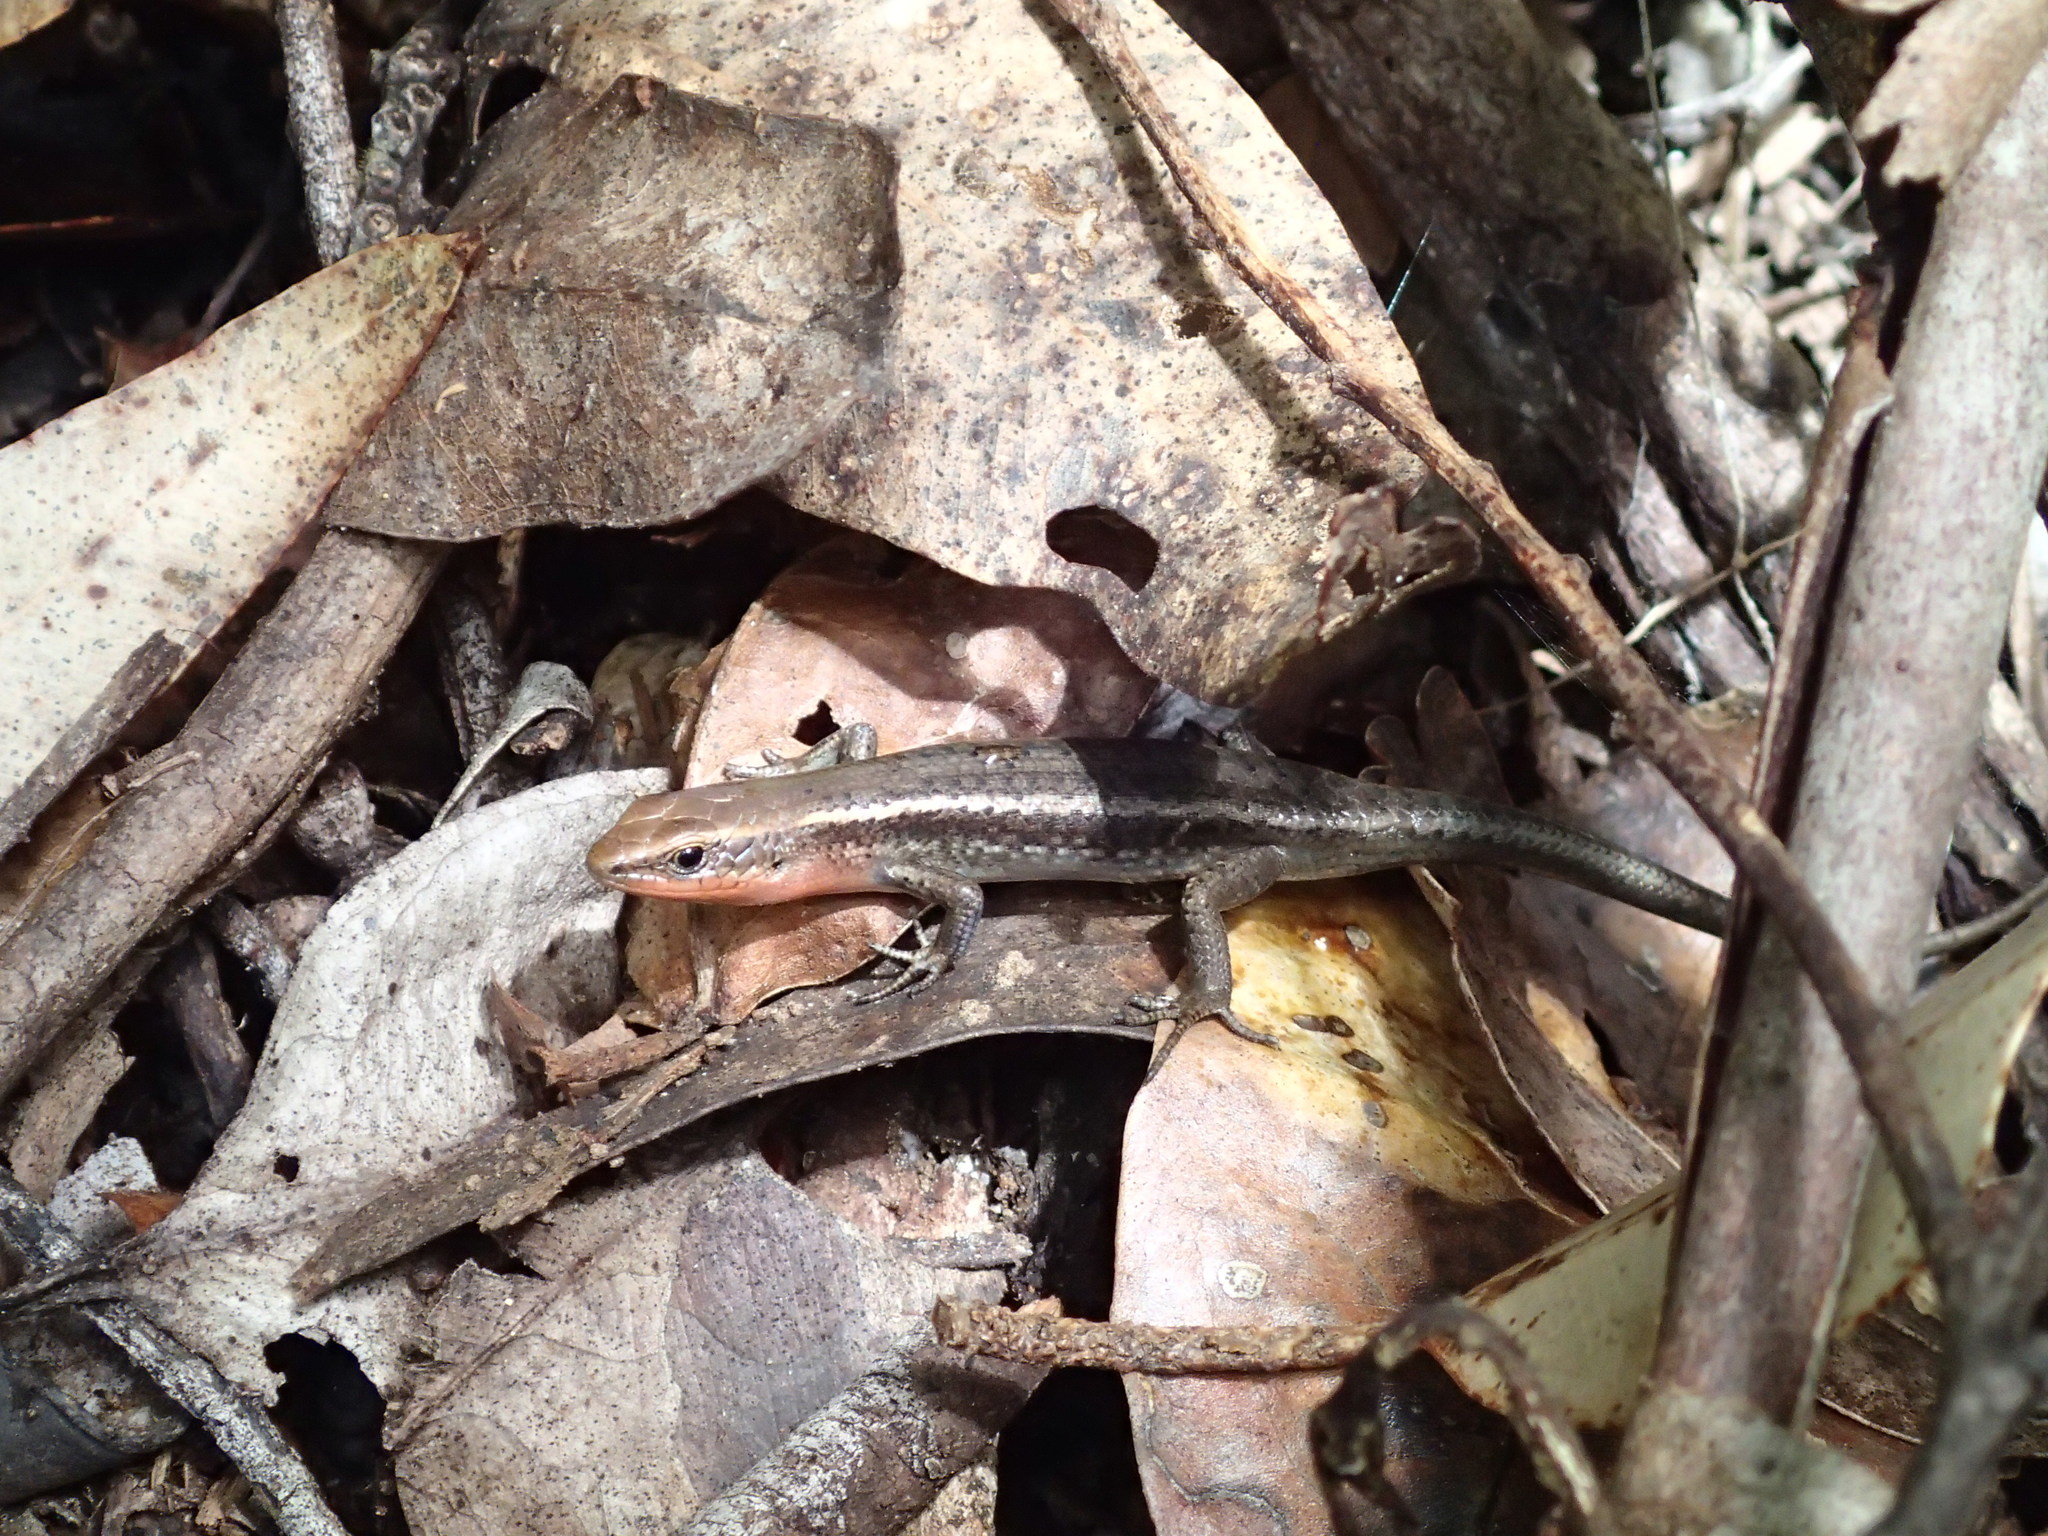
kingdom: Animalia
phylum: Chordata
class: Squamata
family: Scincidae
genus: Carlia
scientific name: Carlia rubrigularis
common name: Northern red-throated skink
